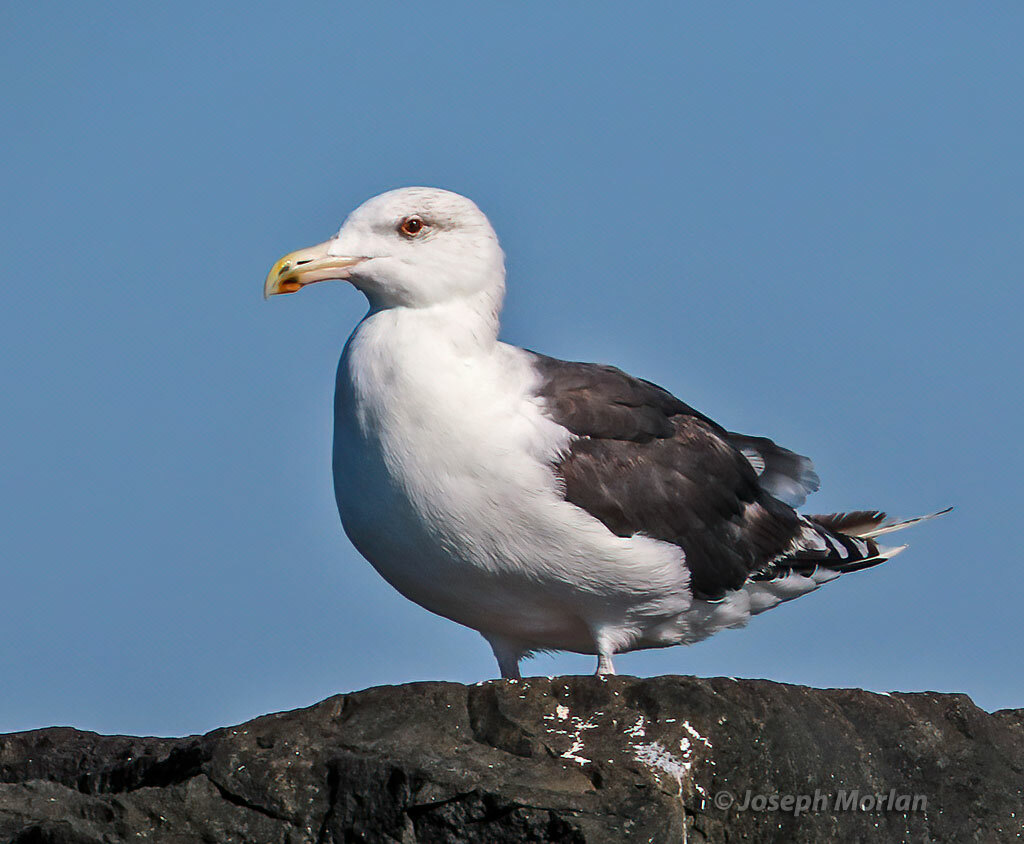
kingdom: Animalia
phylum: Chordata
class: Aves
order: Charadriiformes
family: Laridae
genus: Larus
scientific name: Larus marinus
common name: Great black-backed gull
